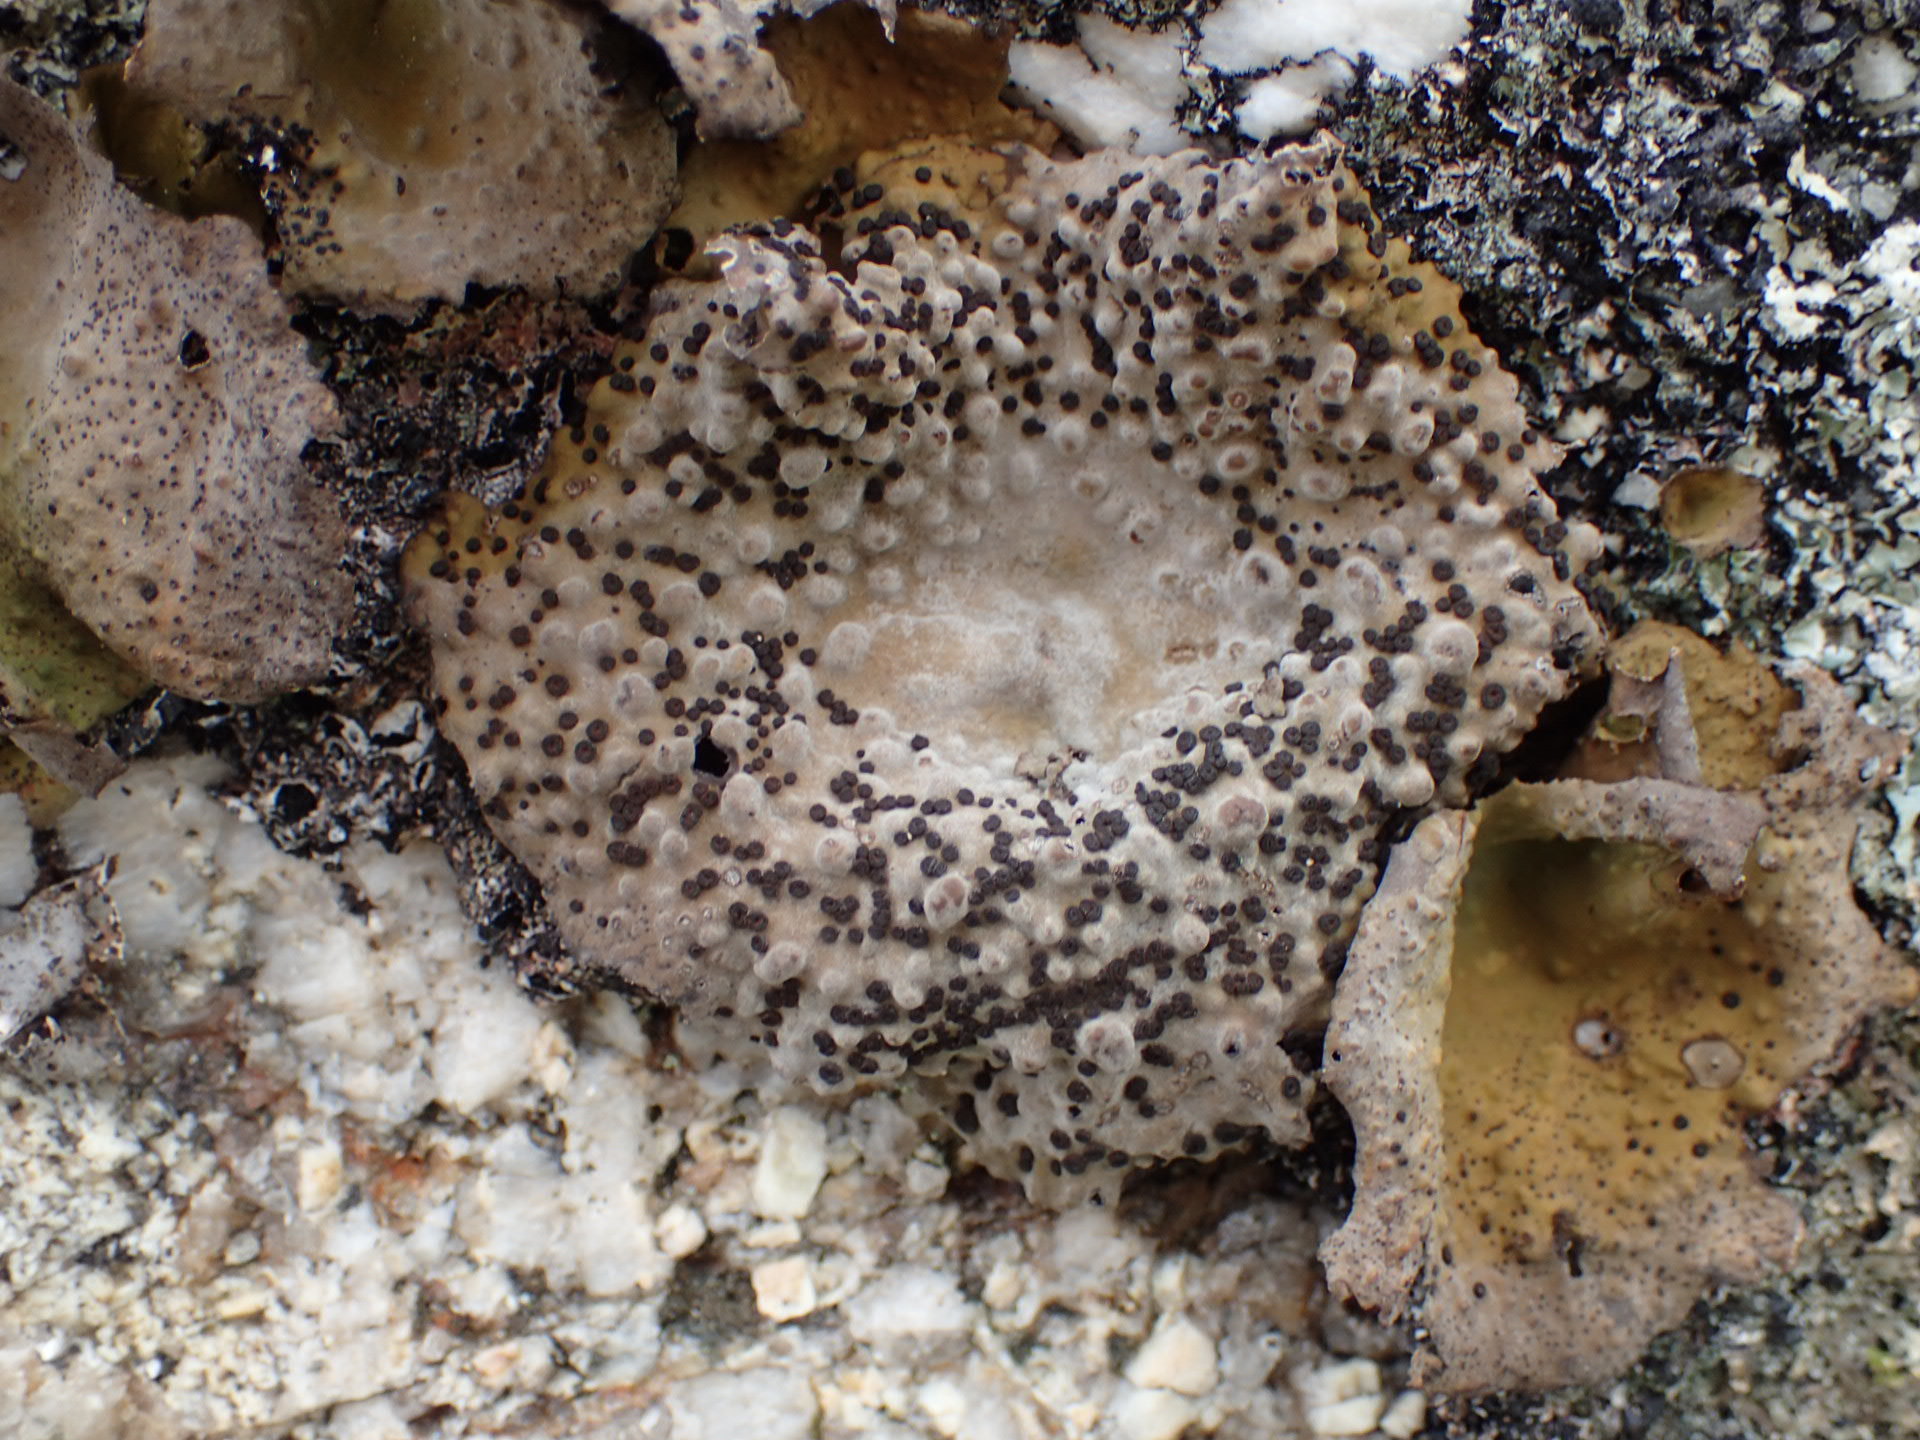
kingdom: Fungi
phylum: Ascomycota
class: Lecanoromycetes
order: Umbilicariales
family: Umbilicariaceae
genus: Lasallia
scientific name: Lasallia papulosa
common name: Common toadskin lichen
